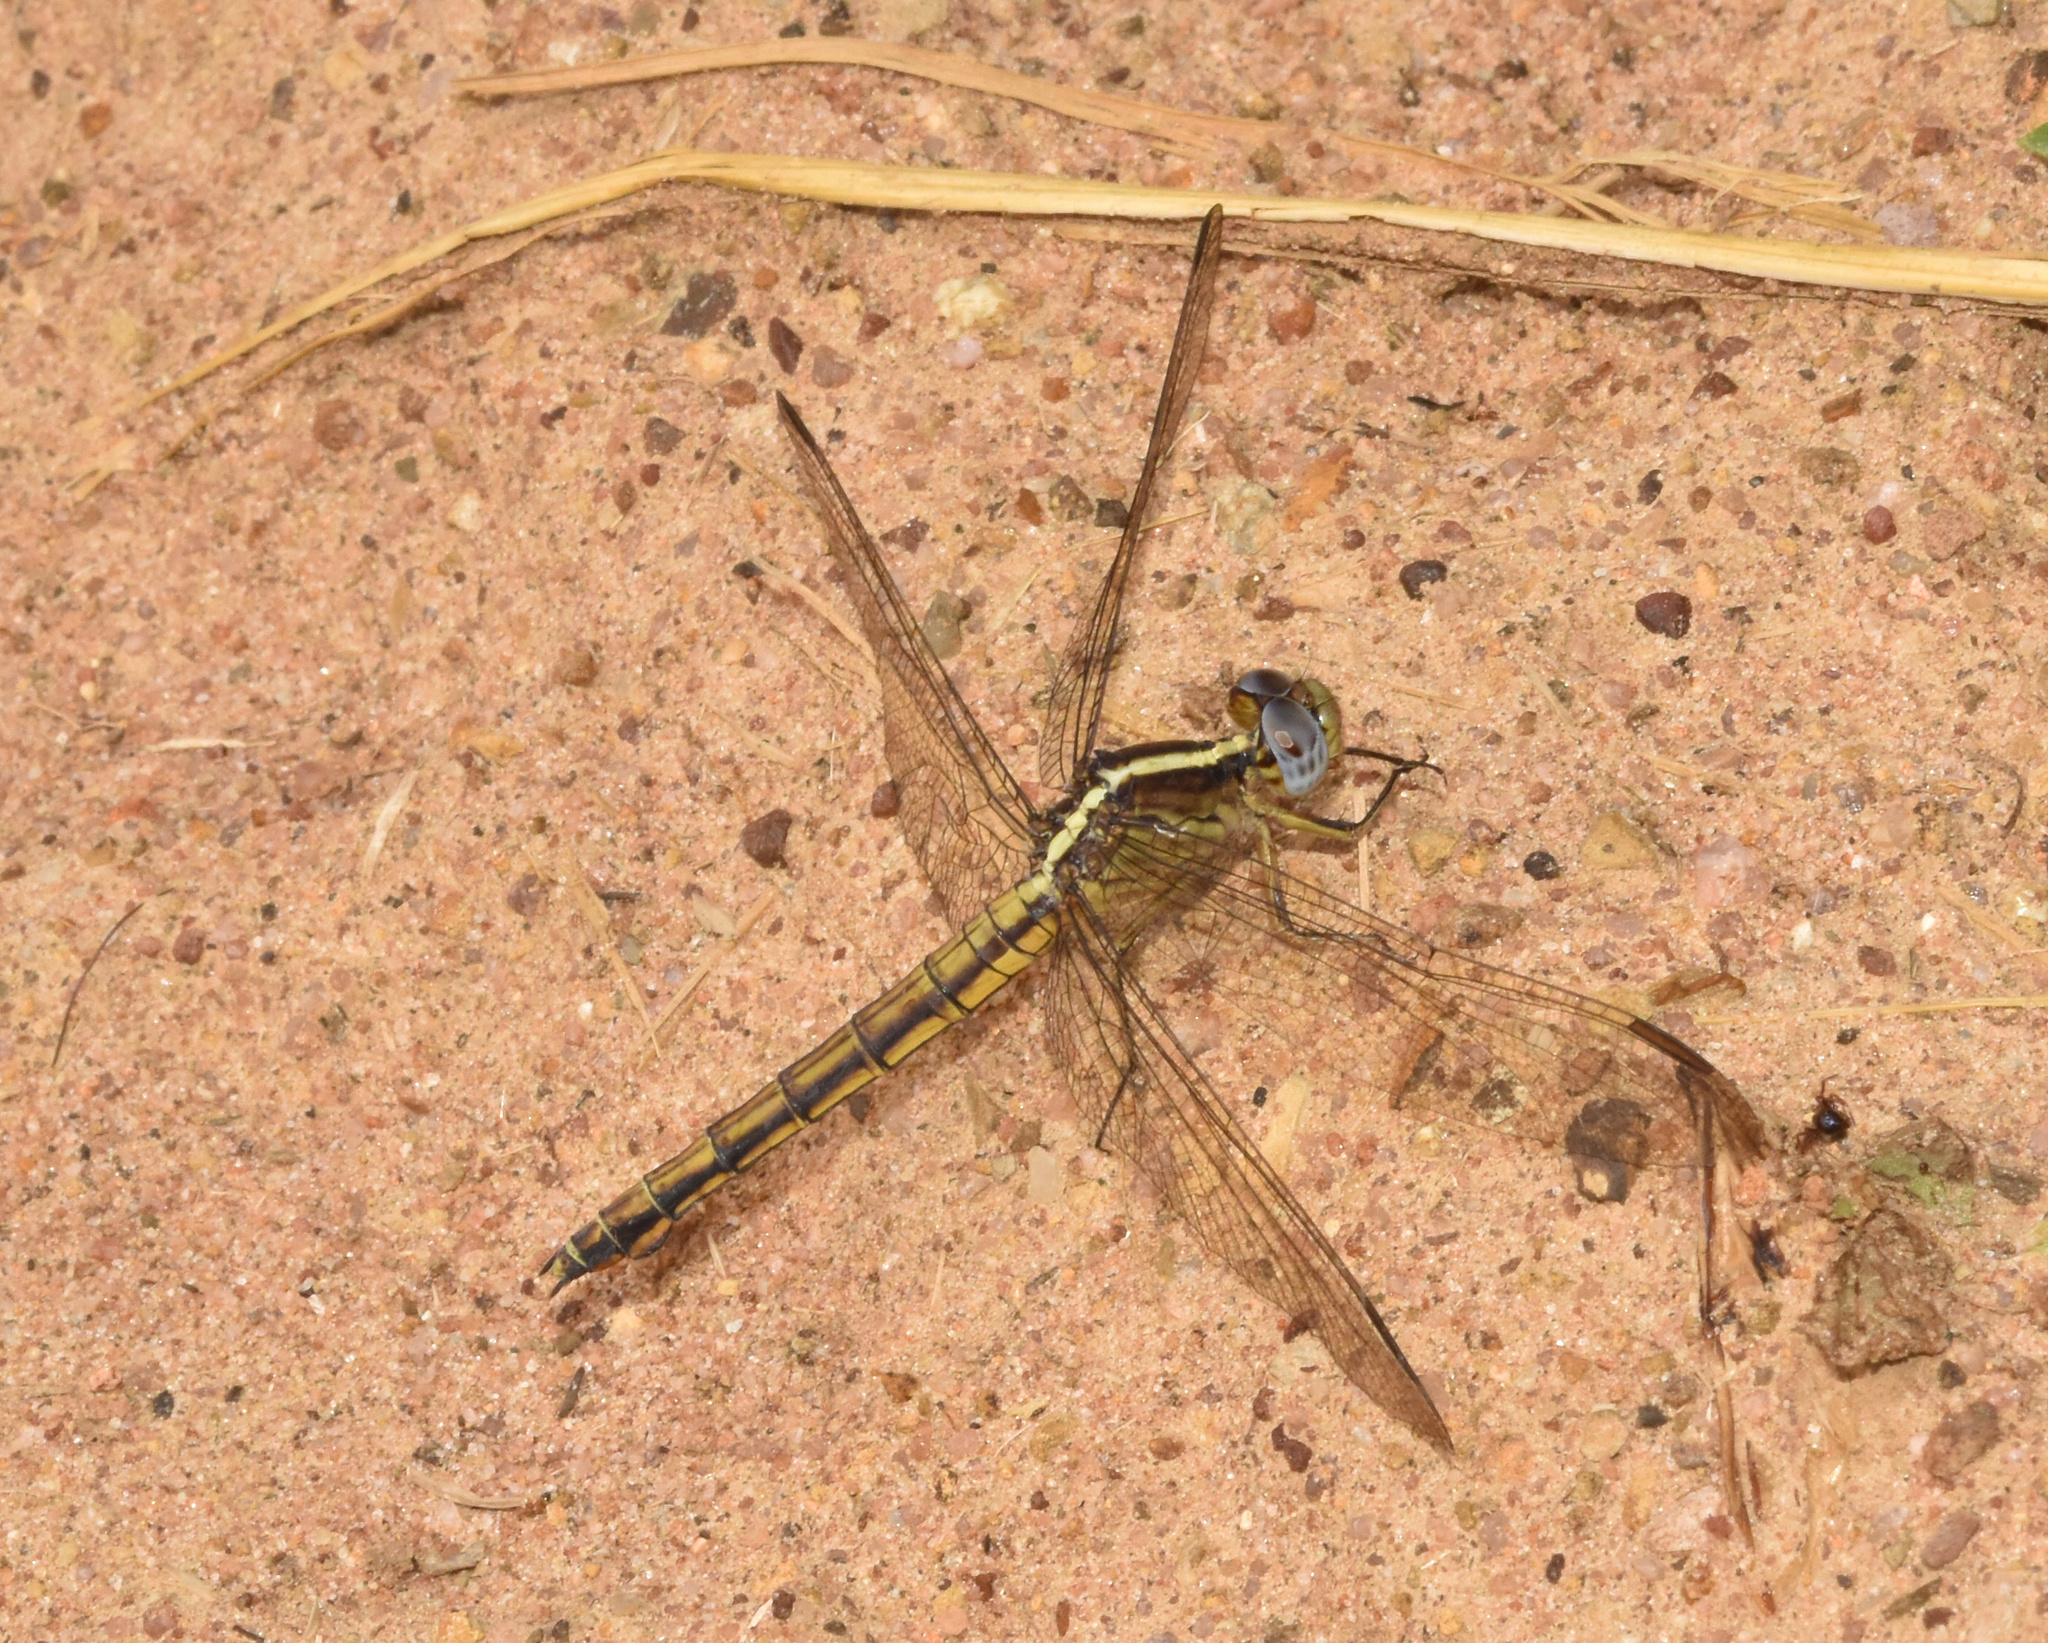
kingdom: Animalia
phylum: Arthropoda
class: Insecta
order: Odonata
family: Libellulidae
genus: Nesciothemis
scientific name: Nesciothemis farinosa
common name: Eastern blacktail
